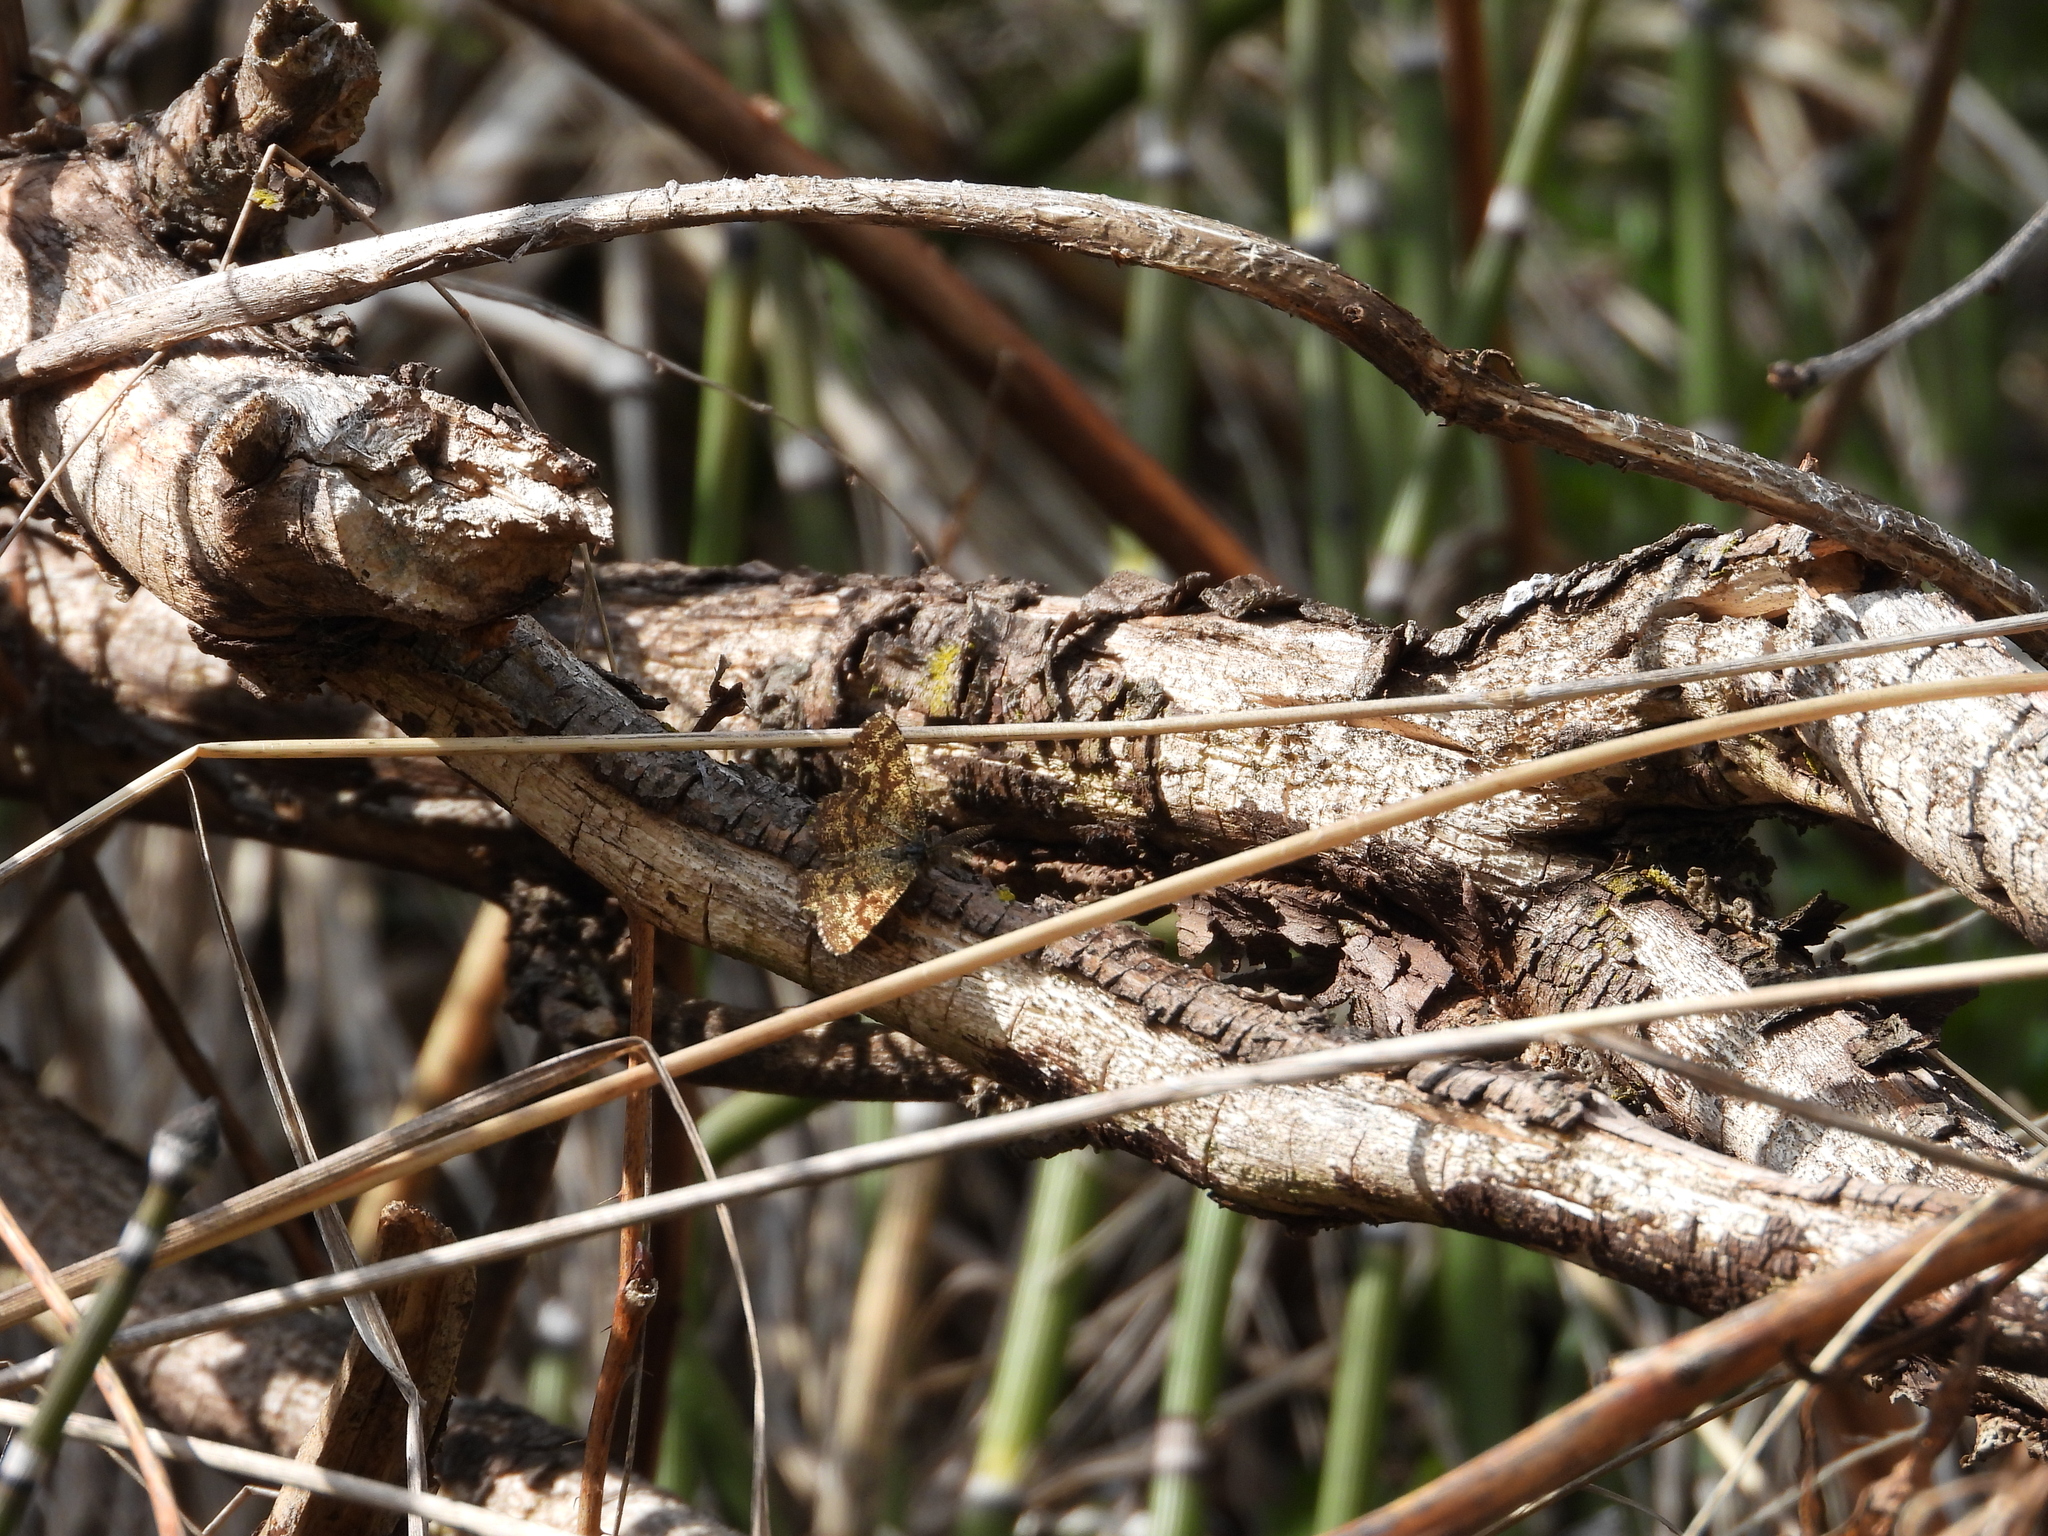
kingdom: Animalia
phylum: Arthropoda
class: Insecta
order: Lepidoptera
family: Geometridae
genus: Ematurga
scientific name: Ematurga atomaria
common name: Common heath
